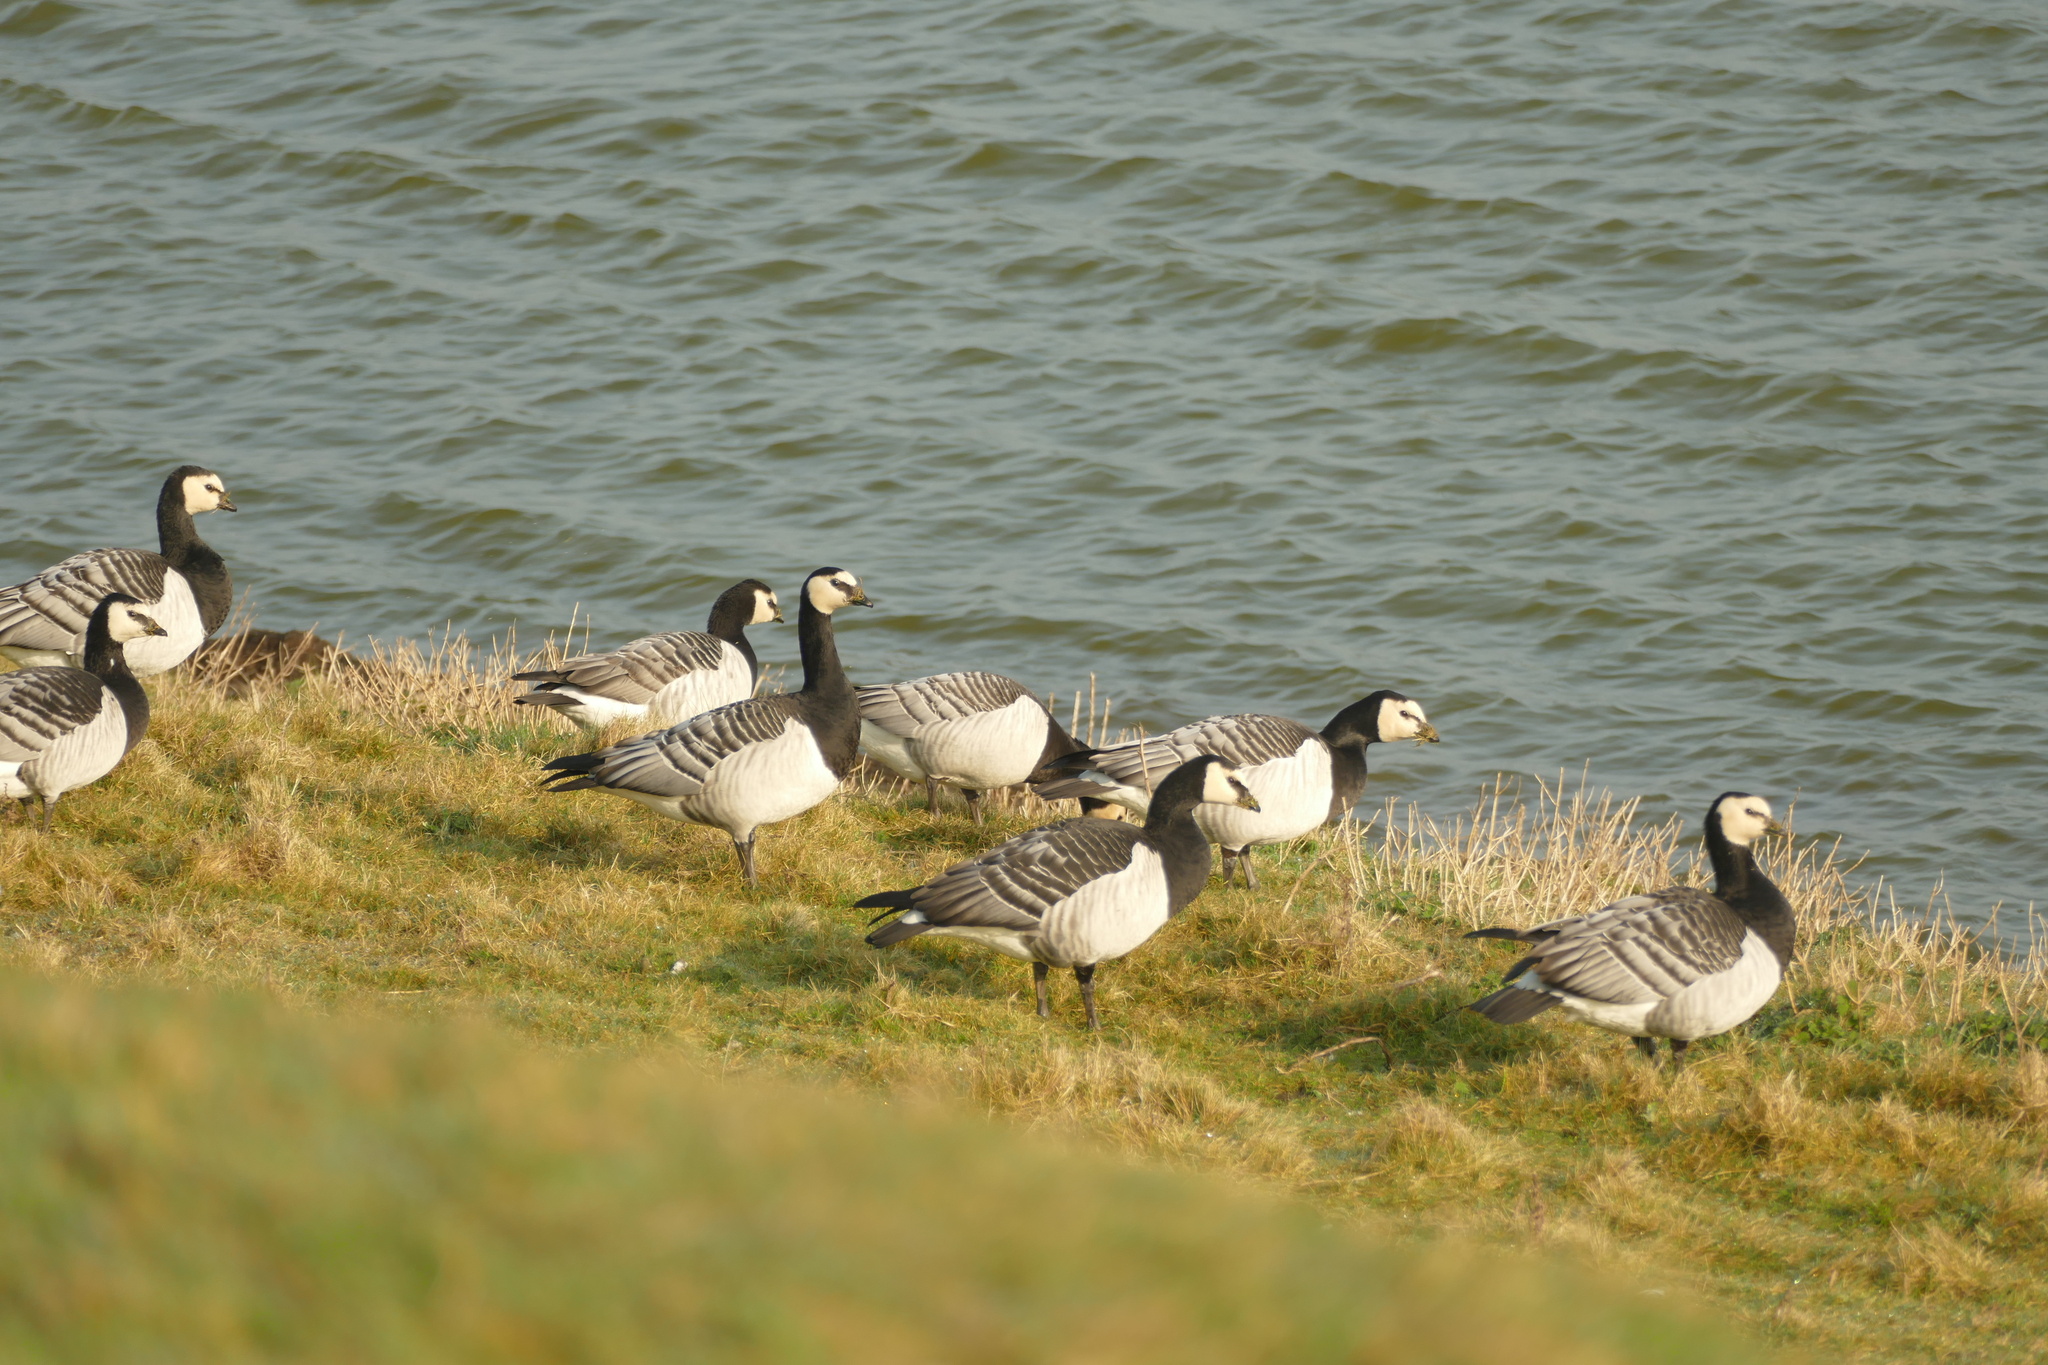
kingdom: Animalia
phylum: Chordata
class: Aves
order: Anseriformes
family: Anatidae
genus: Branta
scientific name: Branta leucopsis
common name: Barnacle goose
